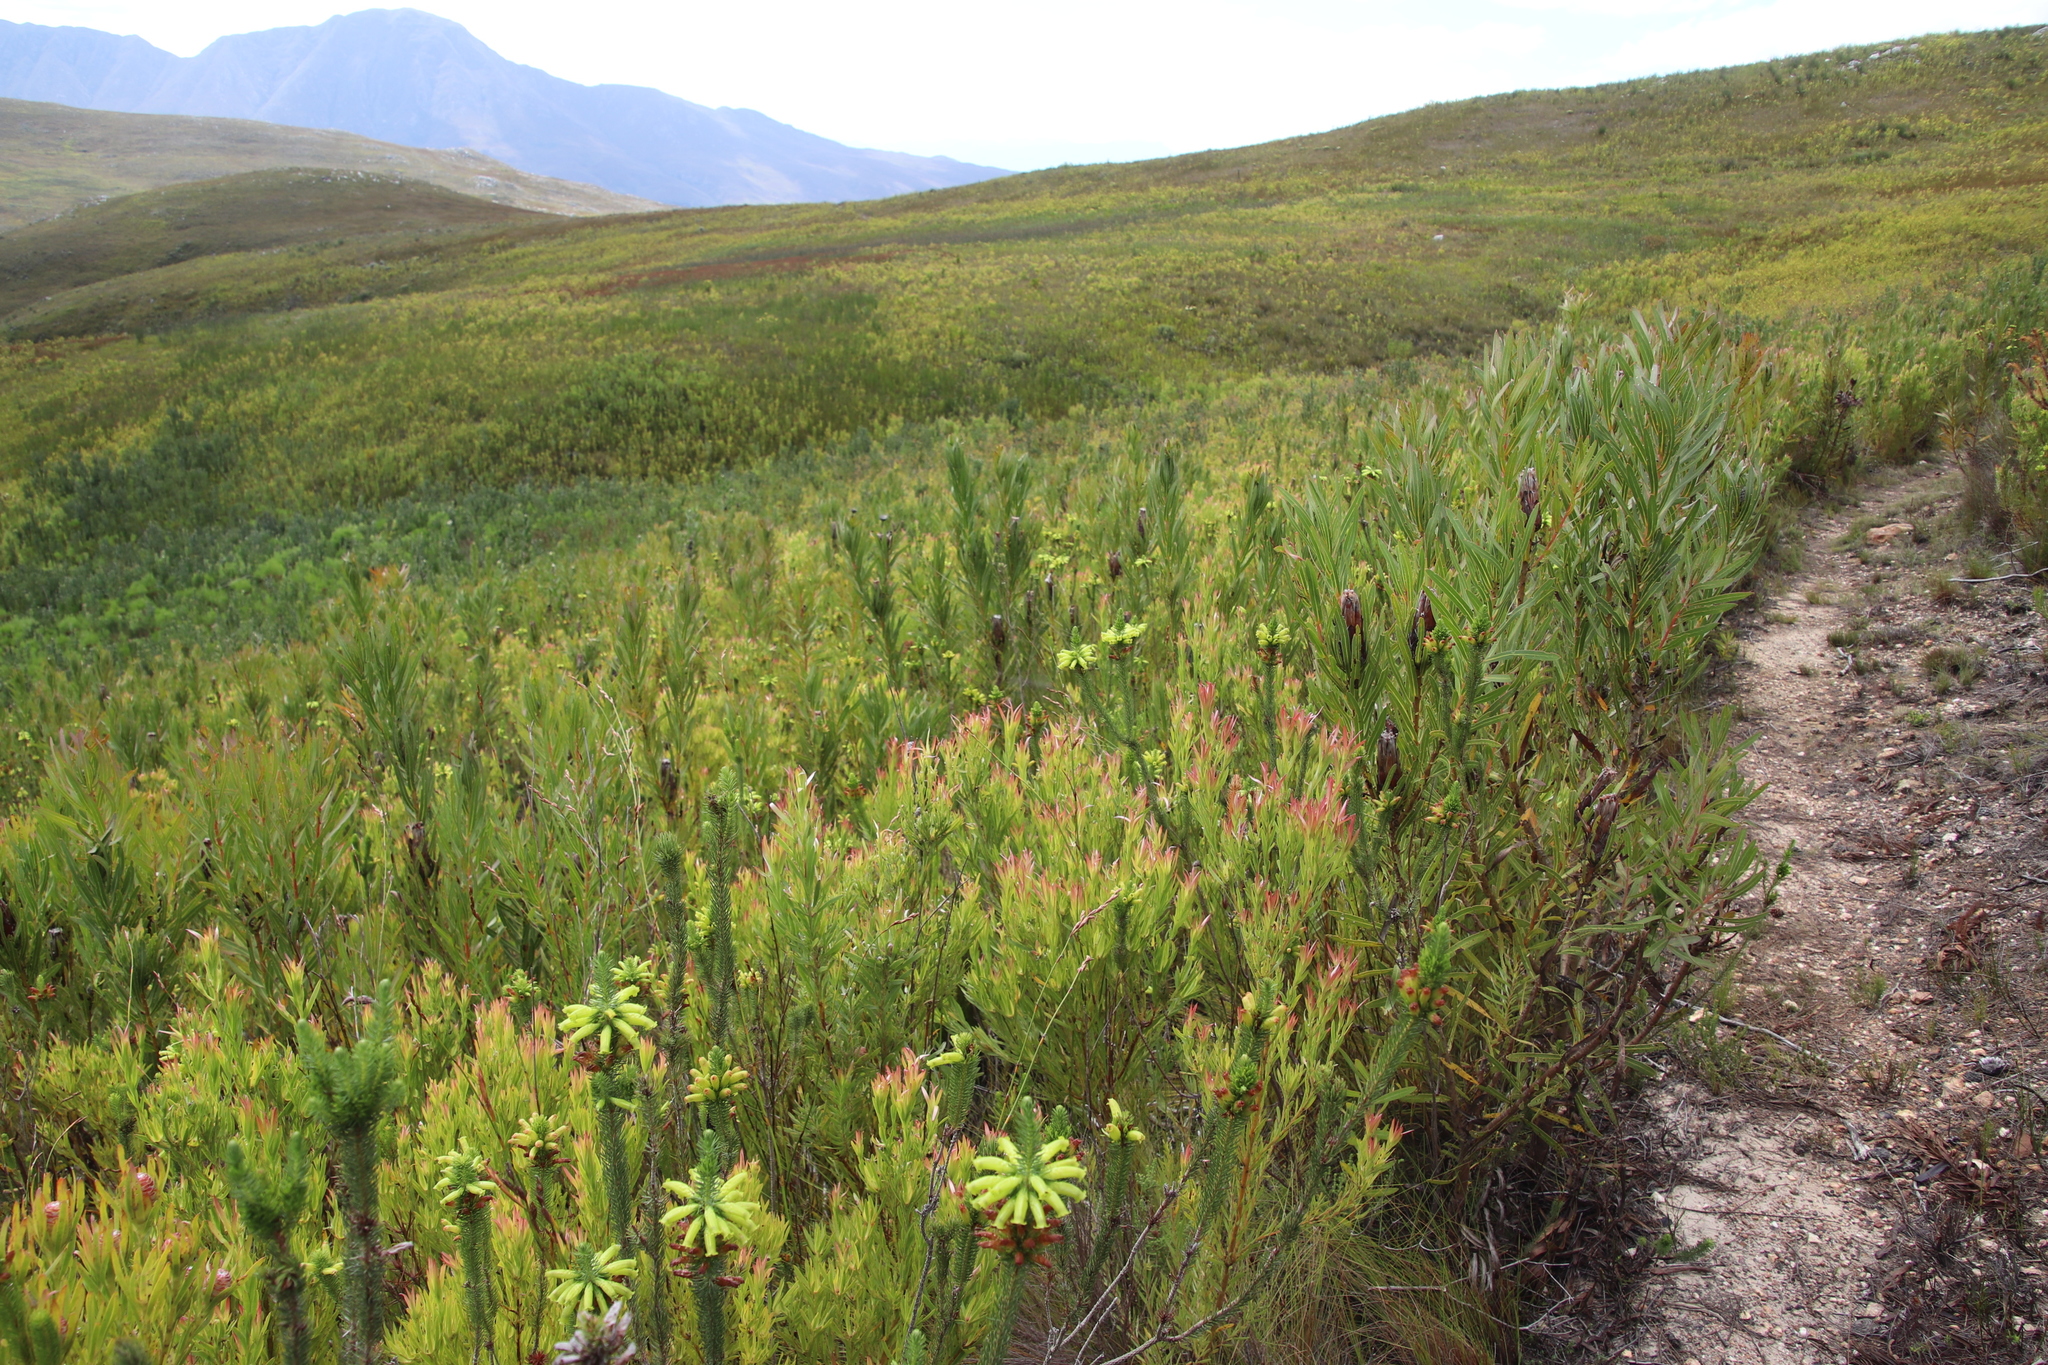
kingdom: Plantae
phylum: Tracheophyta
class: Magnoliopsida
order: Ericales
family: Ericaceae
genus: Erica
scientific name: Erica viscaria
